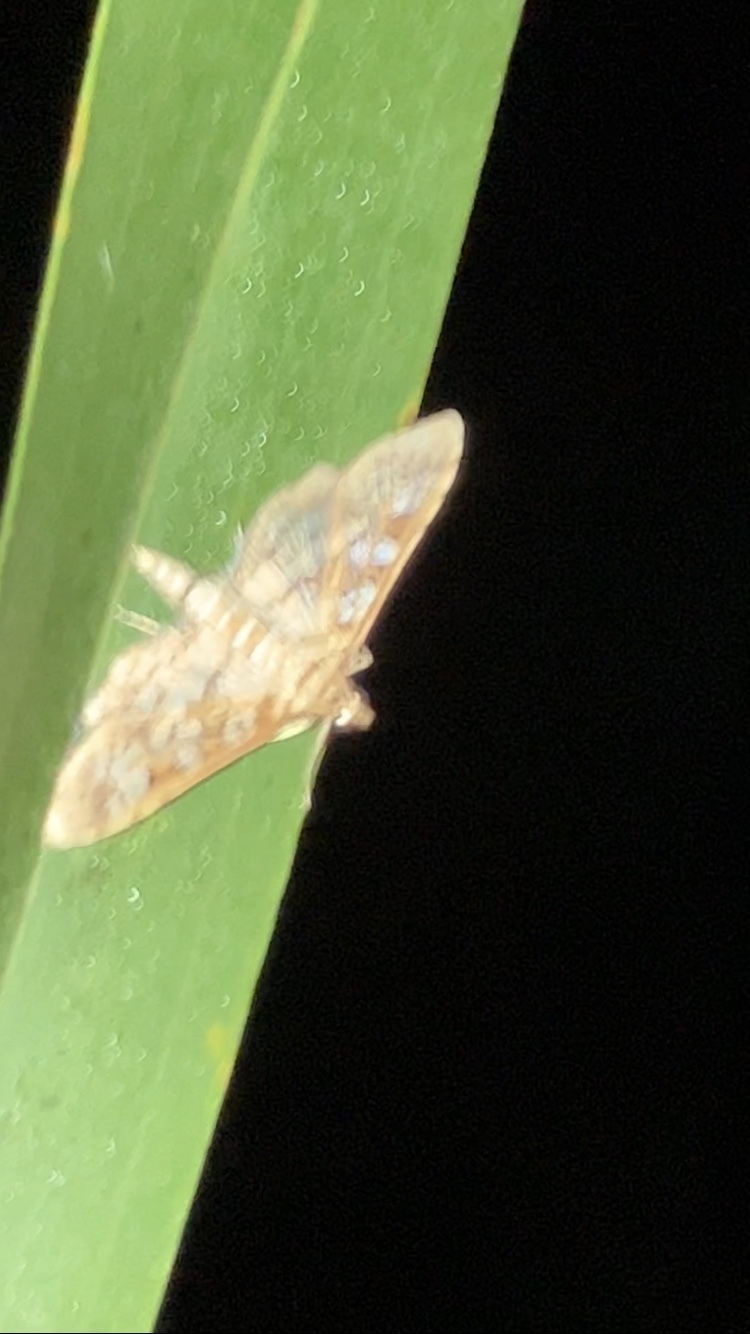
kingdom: Animalia
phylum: Arthropoda
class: Insecta
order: Lepidoptera
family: Crambidae
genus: Samea
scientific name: Samea ecclesialis
